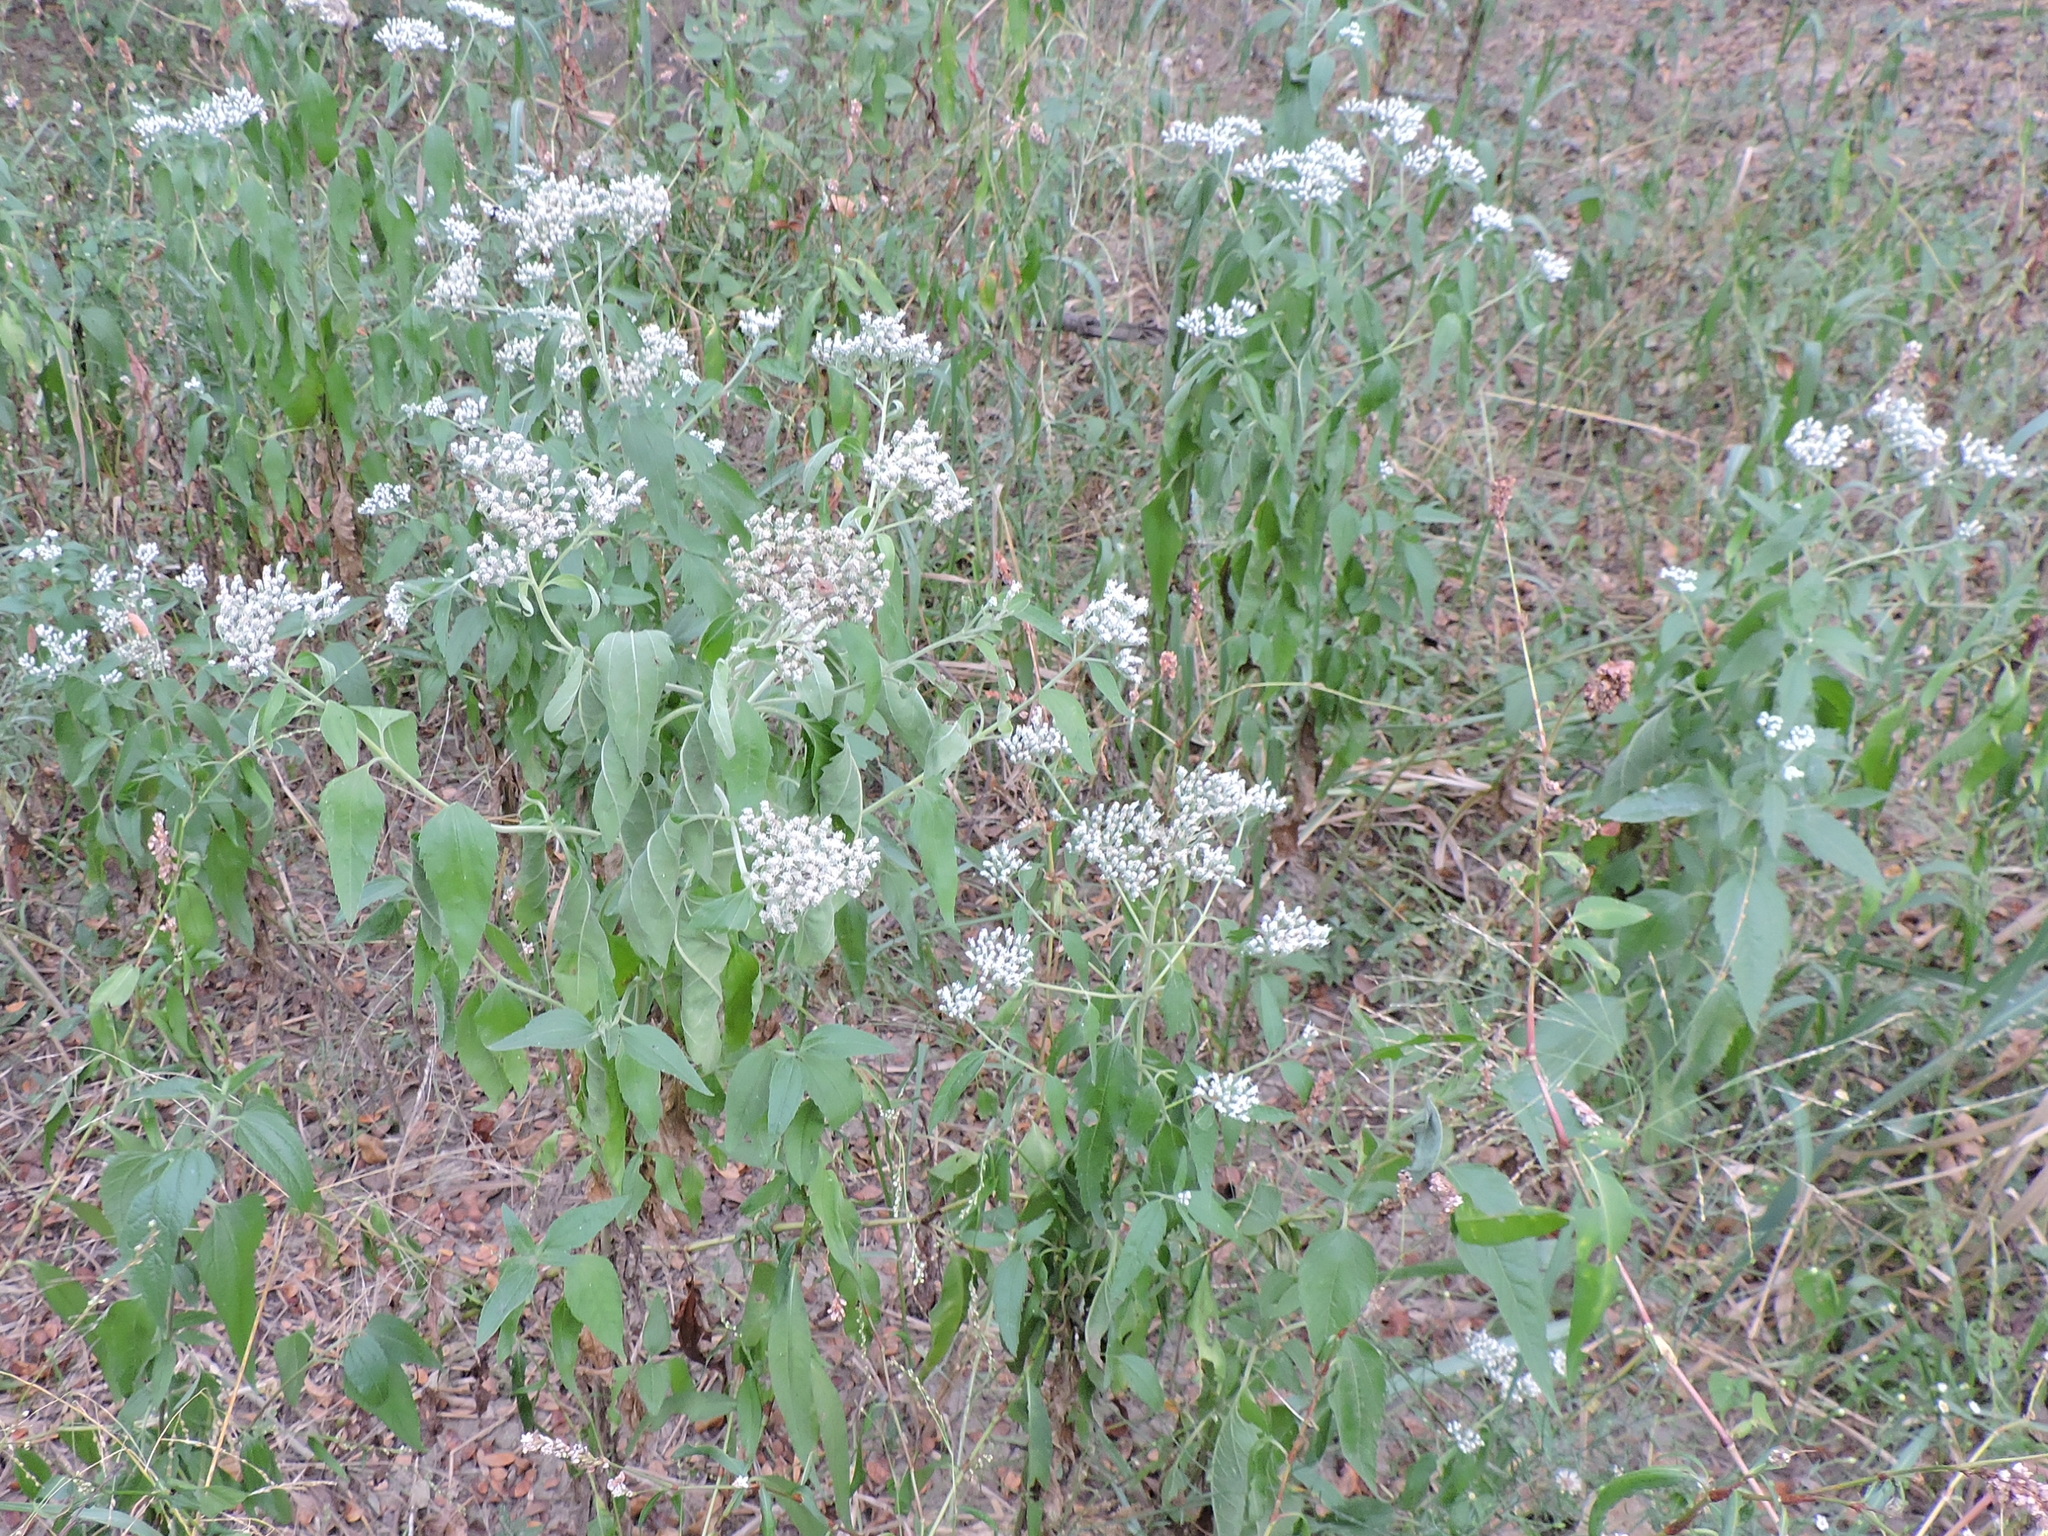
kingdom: Plantae
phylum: Tracheophyta
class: Magnoliopsida
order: Asterales
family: Asteraceae
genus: Eupatorium
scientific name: Eupatorium serotinum
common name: Late boneset
